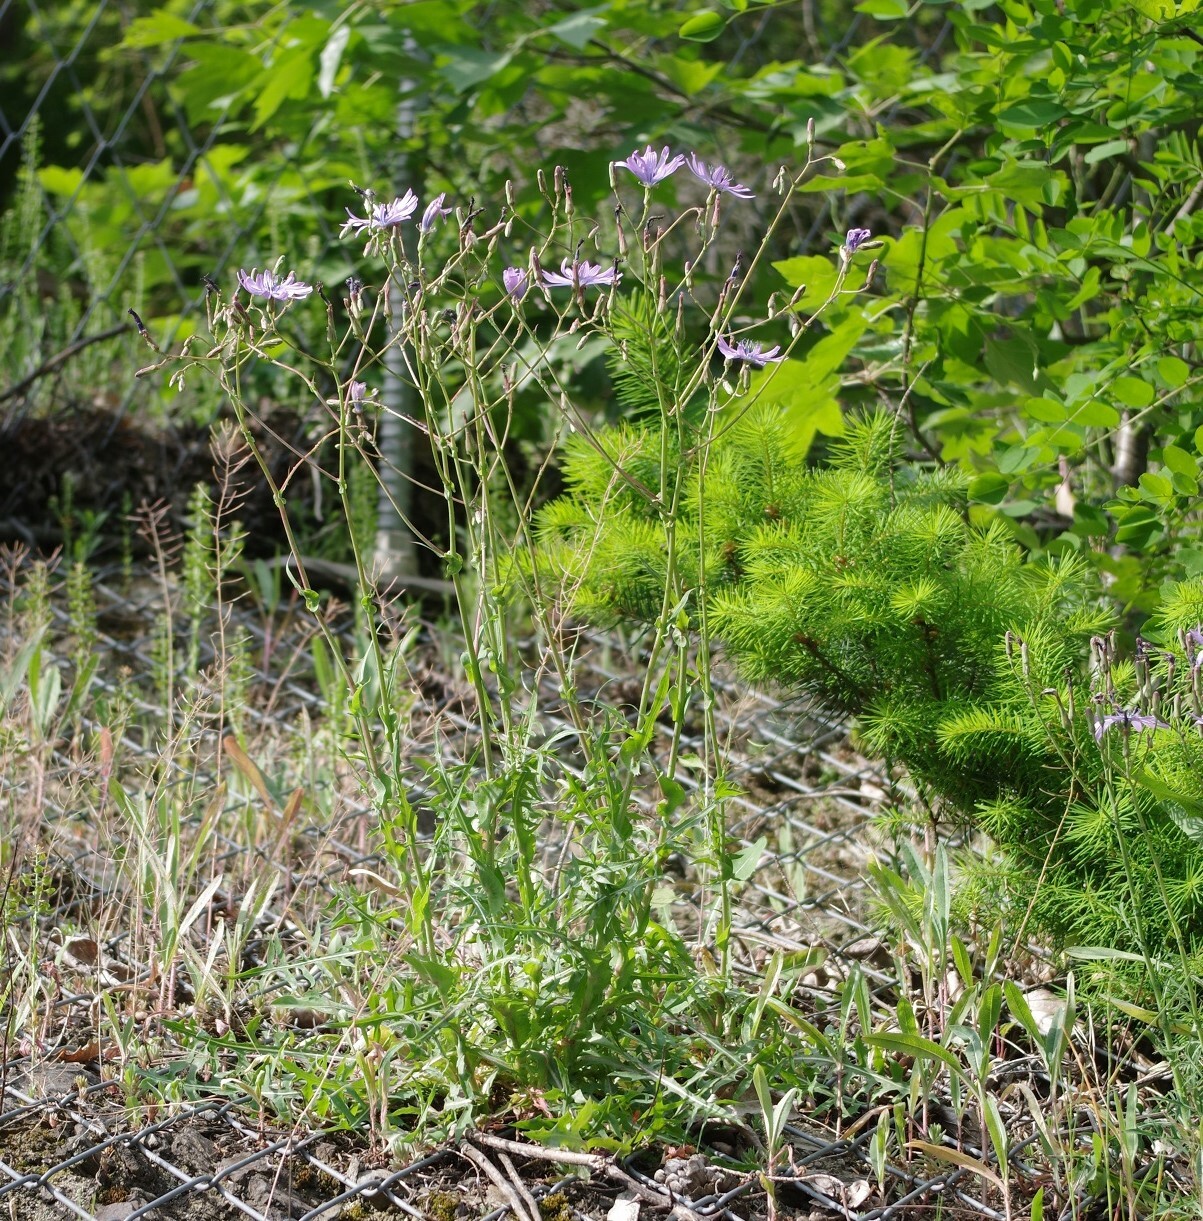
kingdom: Plantae
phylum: Tracheophyta
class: Magnoliopsida
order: Asterales
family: Asteraceae
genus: Lactuca
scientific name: Lactuca perennis
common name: Mountain lettuce
